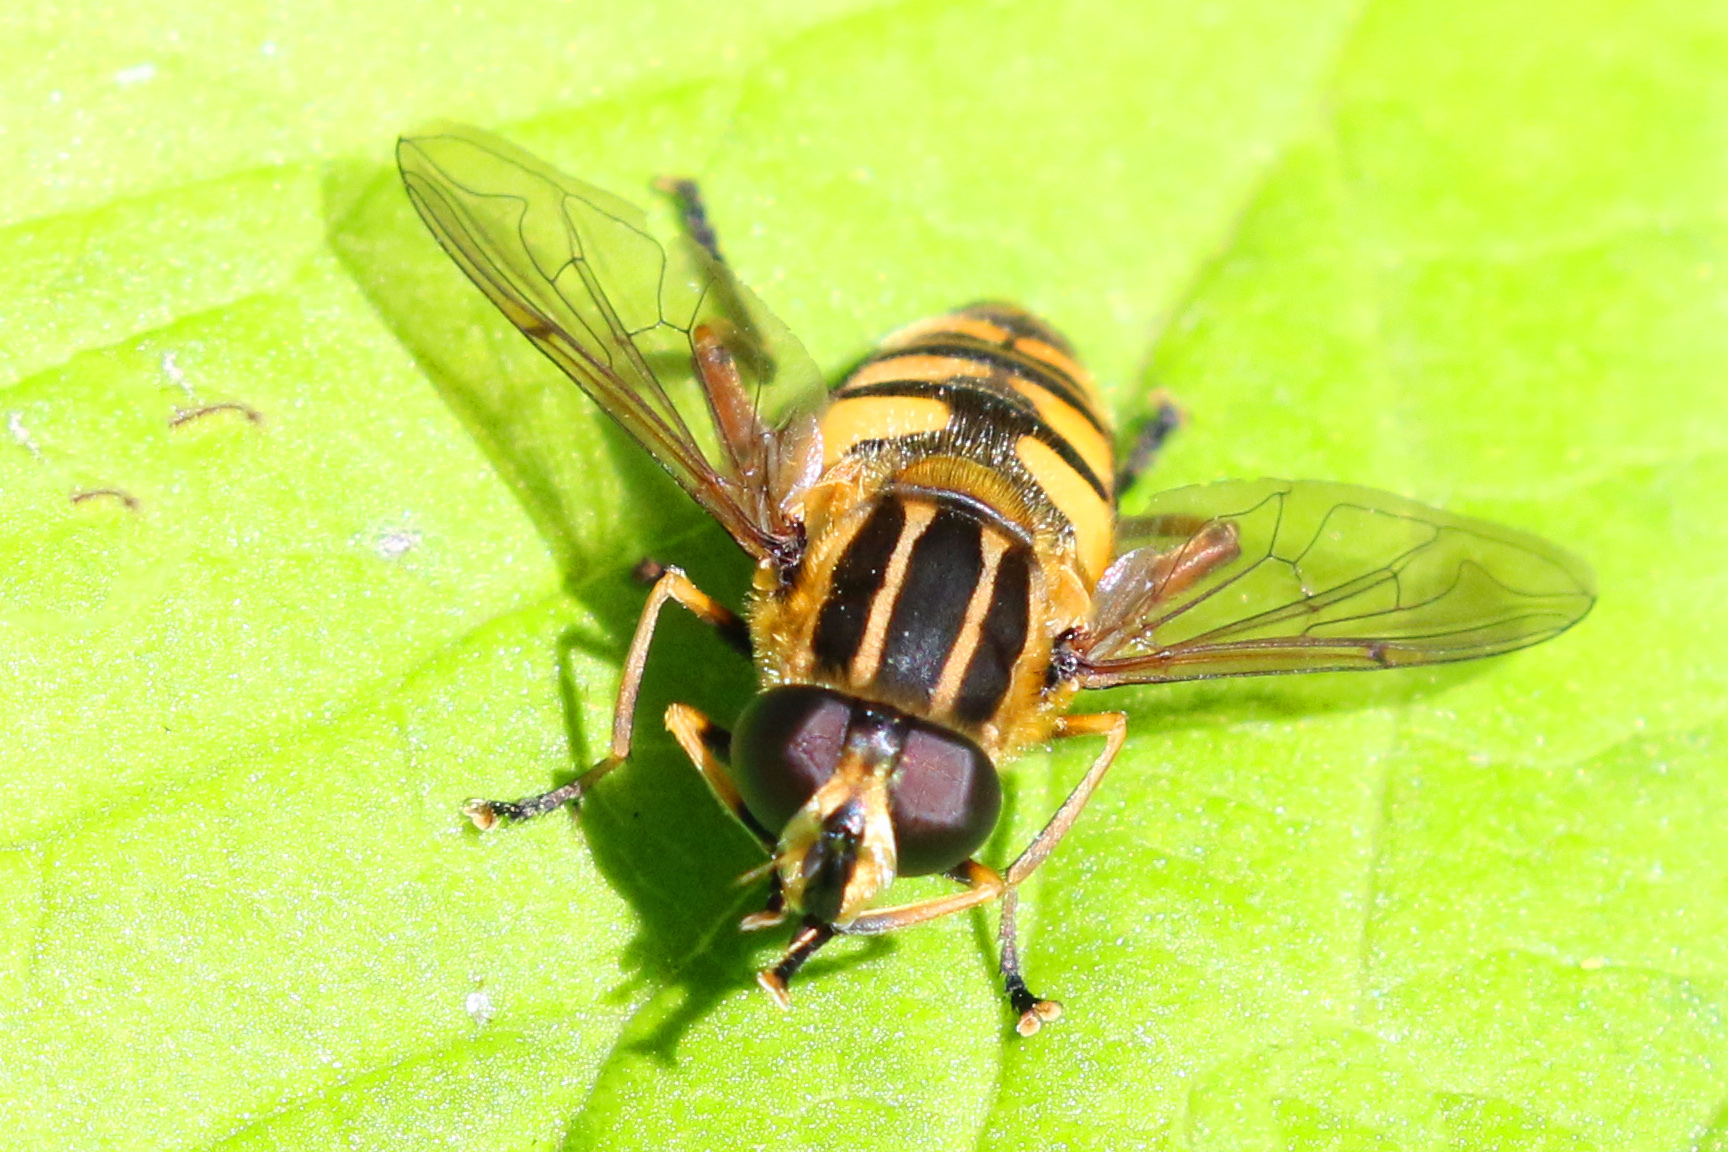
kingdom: Animalia
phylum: Arthropoda
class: Insecta
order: Diptera
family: Syrphidae
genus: Helophilus
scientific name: Helophilus pendulus
